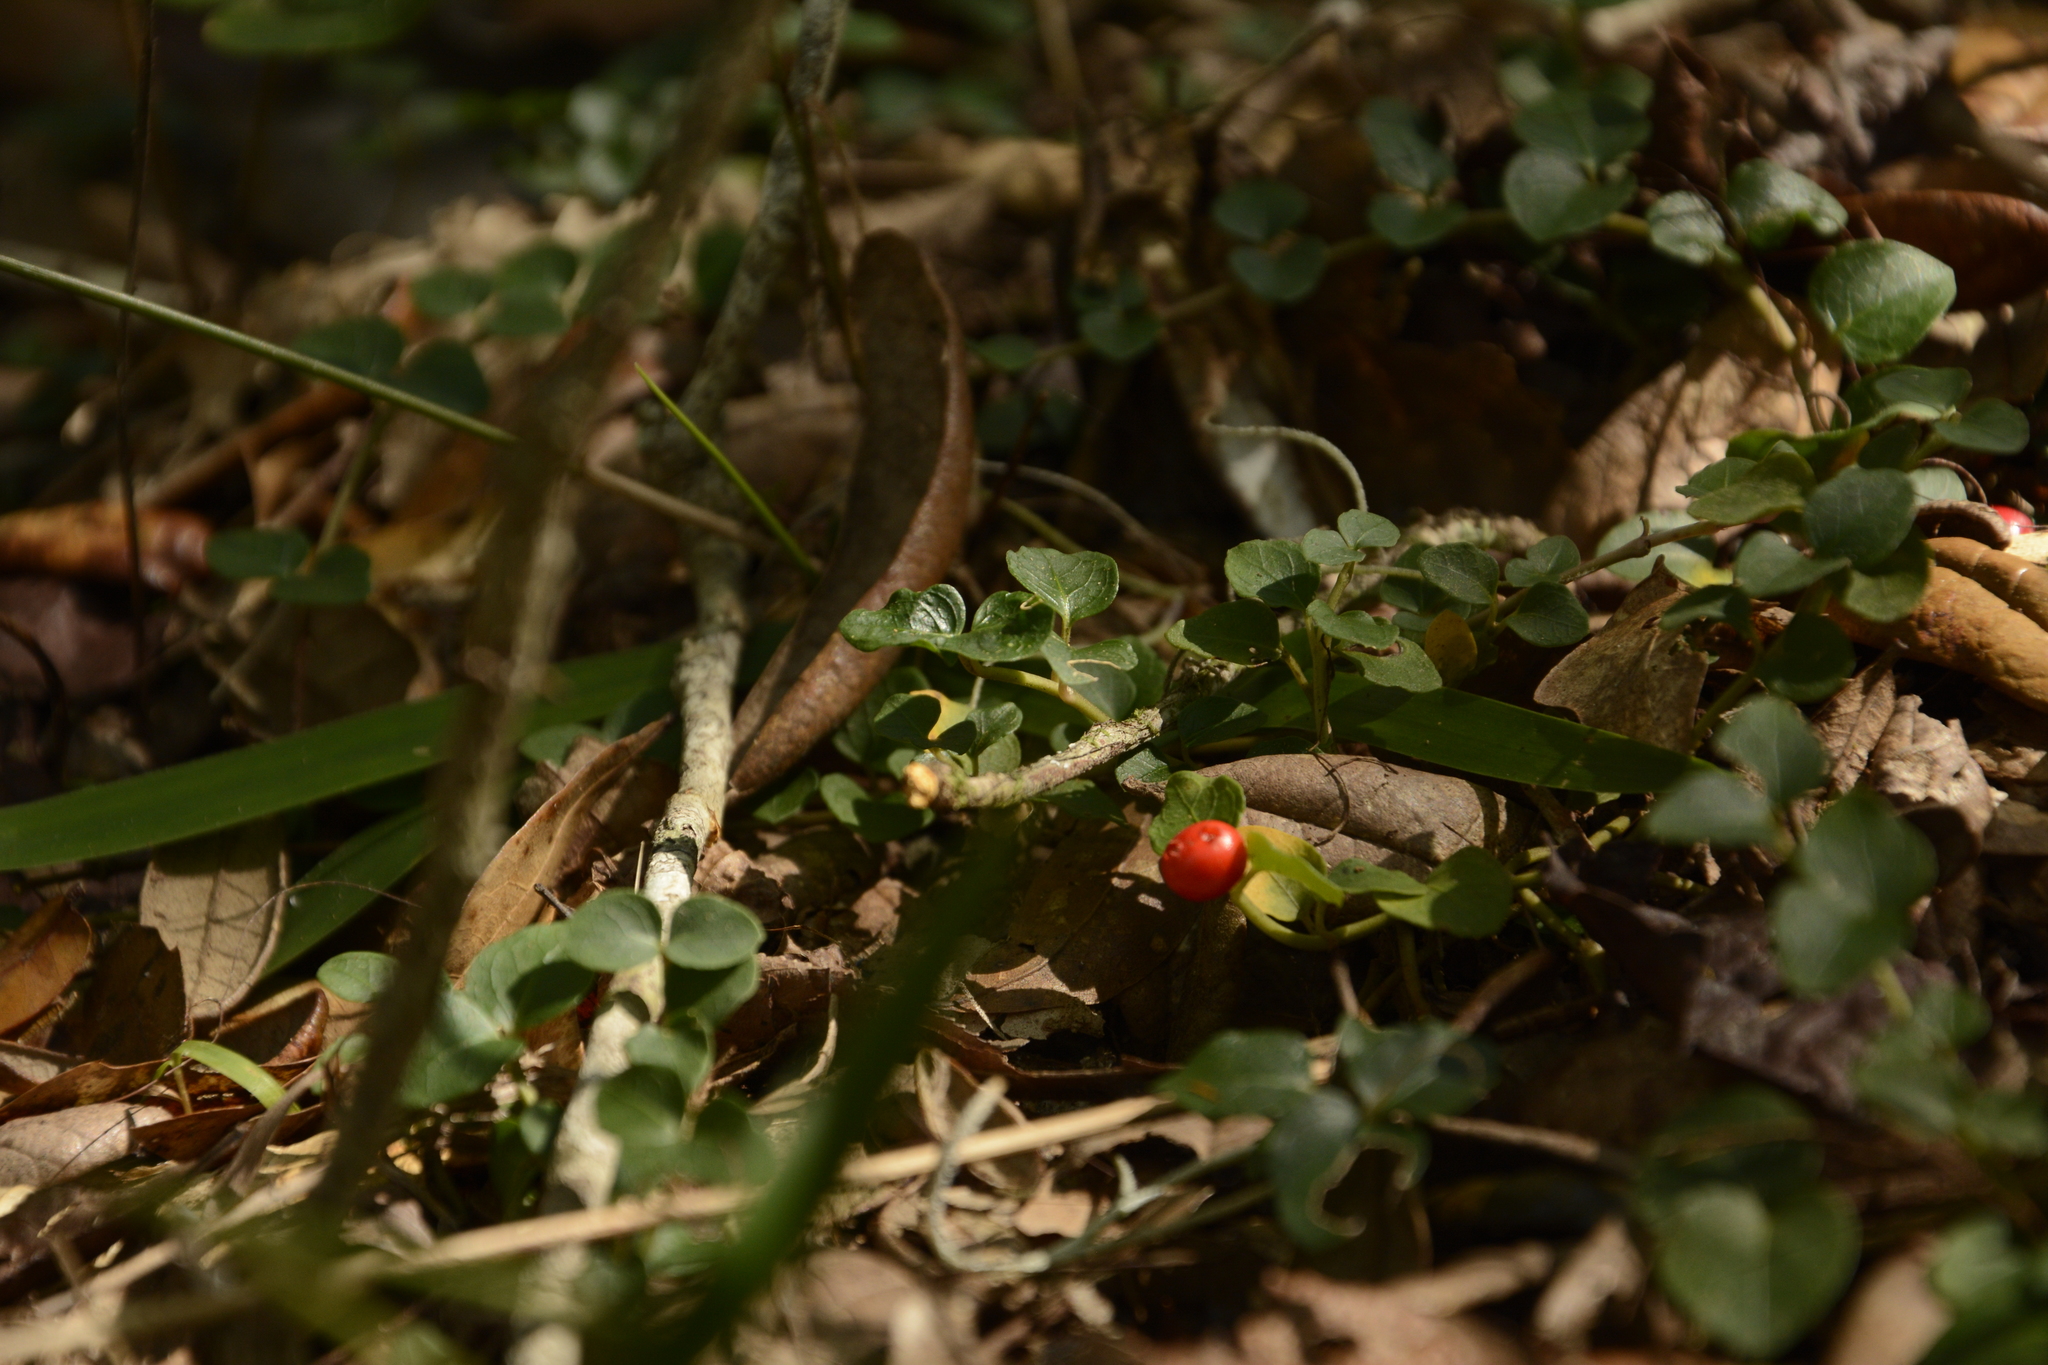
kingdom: Plantae
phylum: Tracheophyta
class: Magnoliopsida
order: Gentianales
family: Rubiaceae
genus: Mitchella
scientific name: Mitchella repens
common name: Partridge-berry
